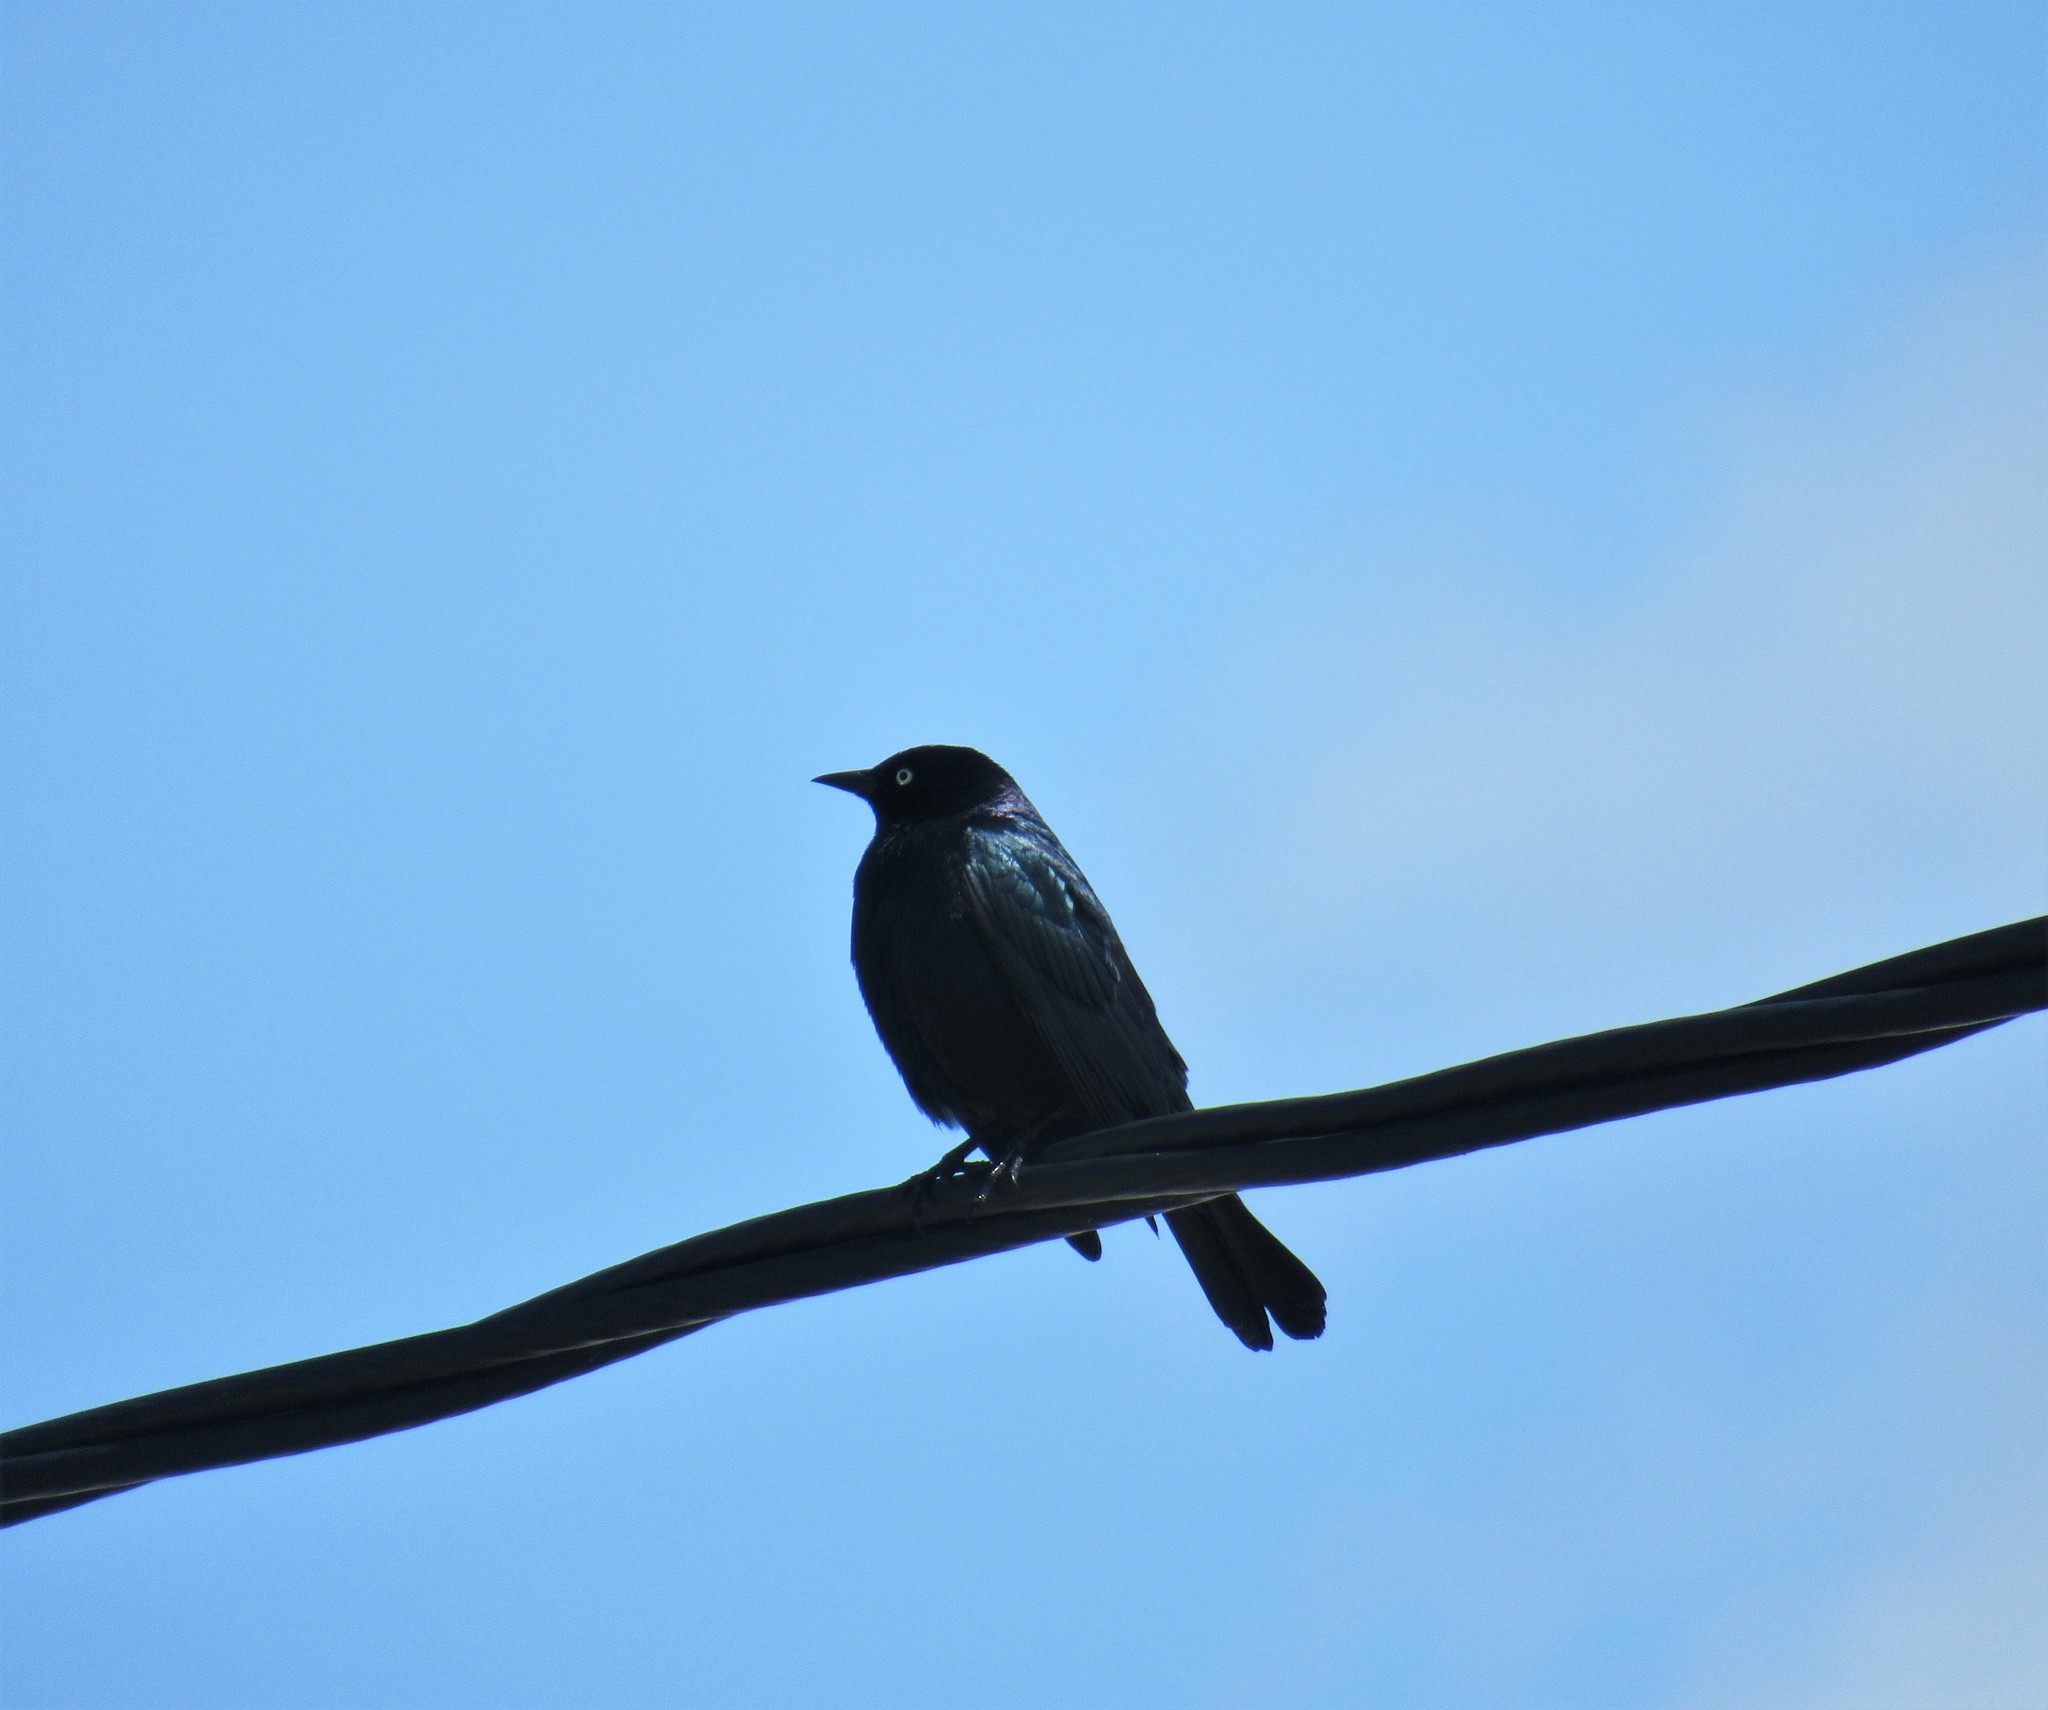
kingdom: Animalia
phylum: Chordata
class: Aves
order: Passeriformes
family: Icteridae
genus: Euphagus
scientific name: Euphagus cyanocephalus
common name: Brewer's blackbird
